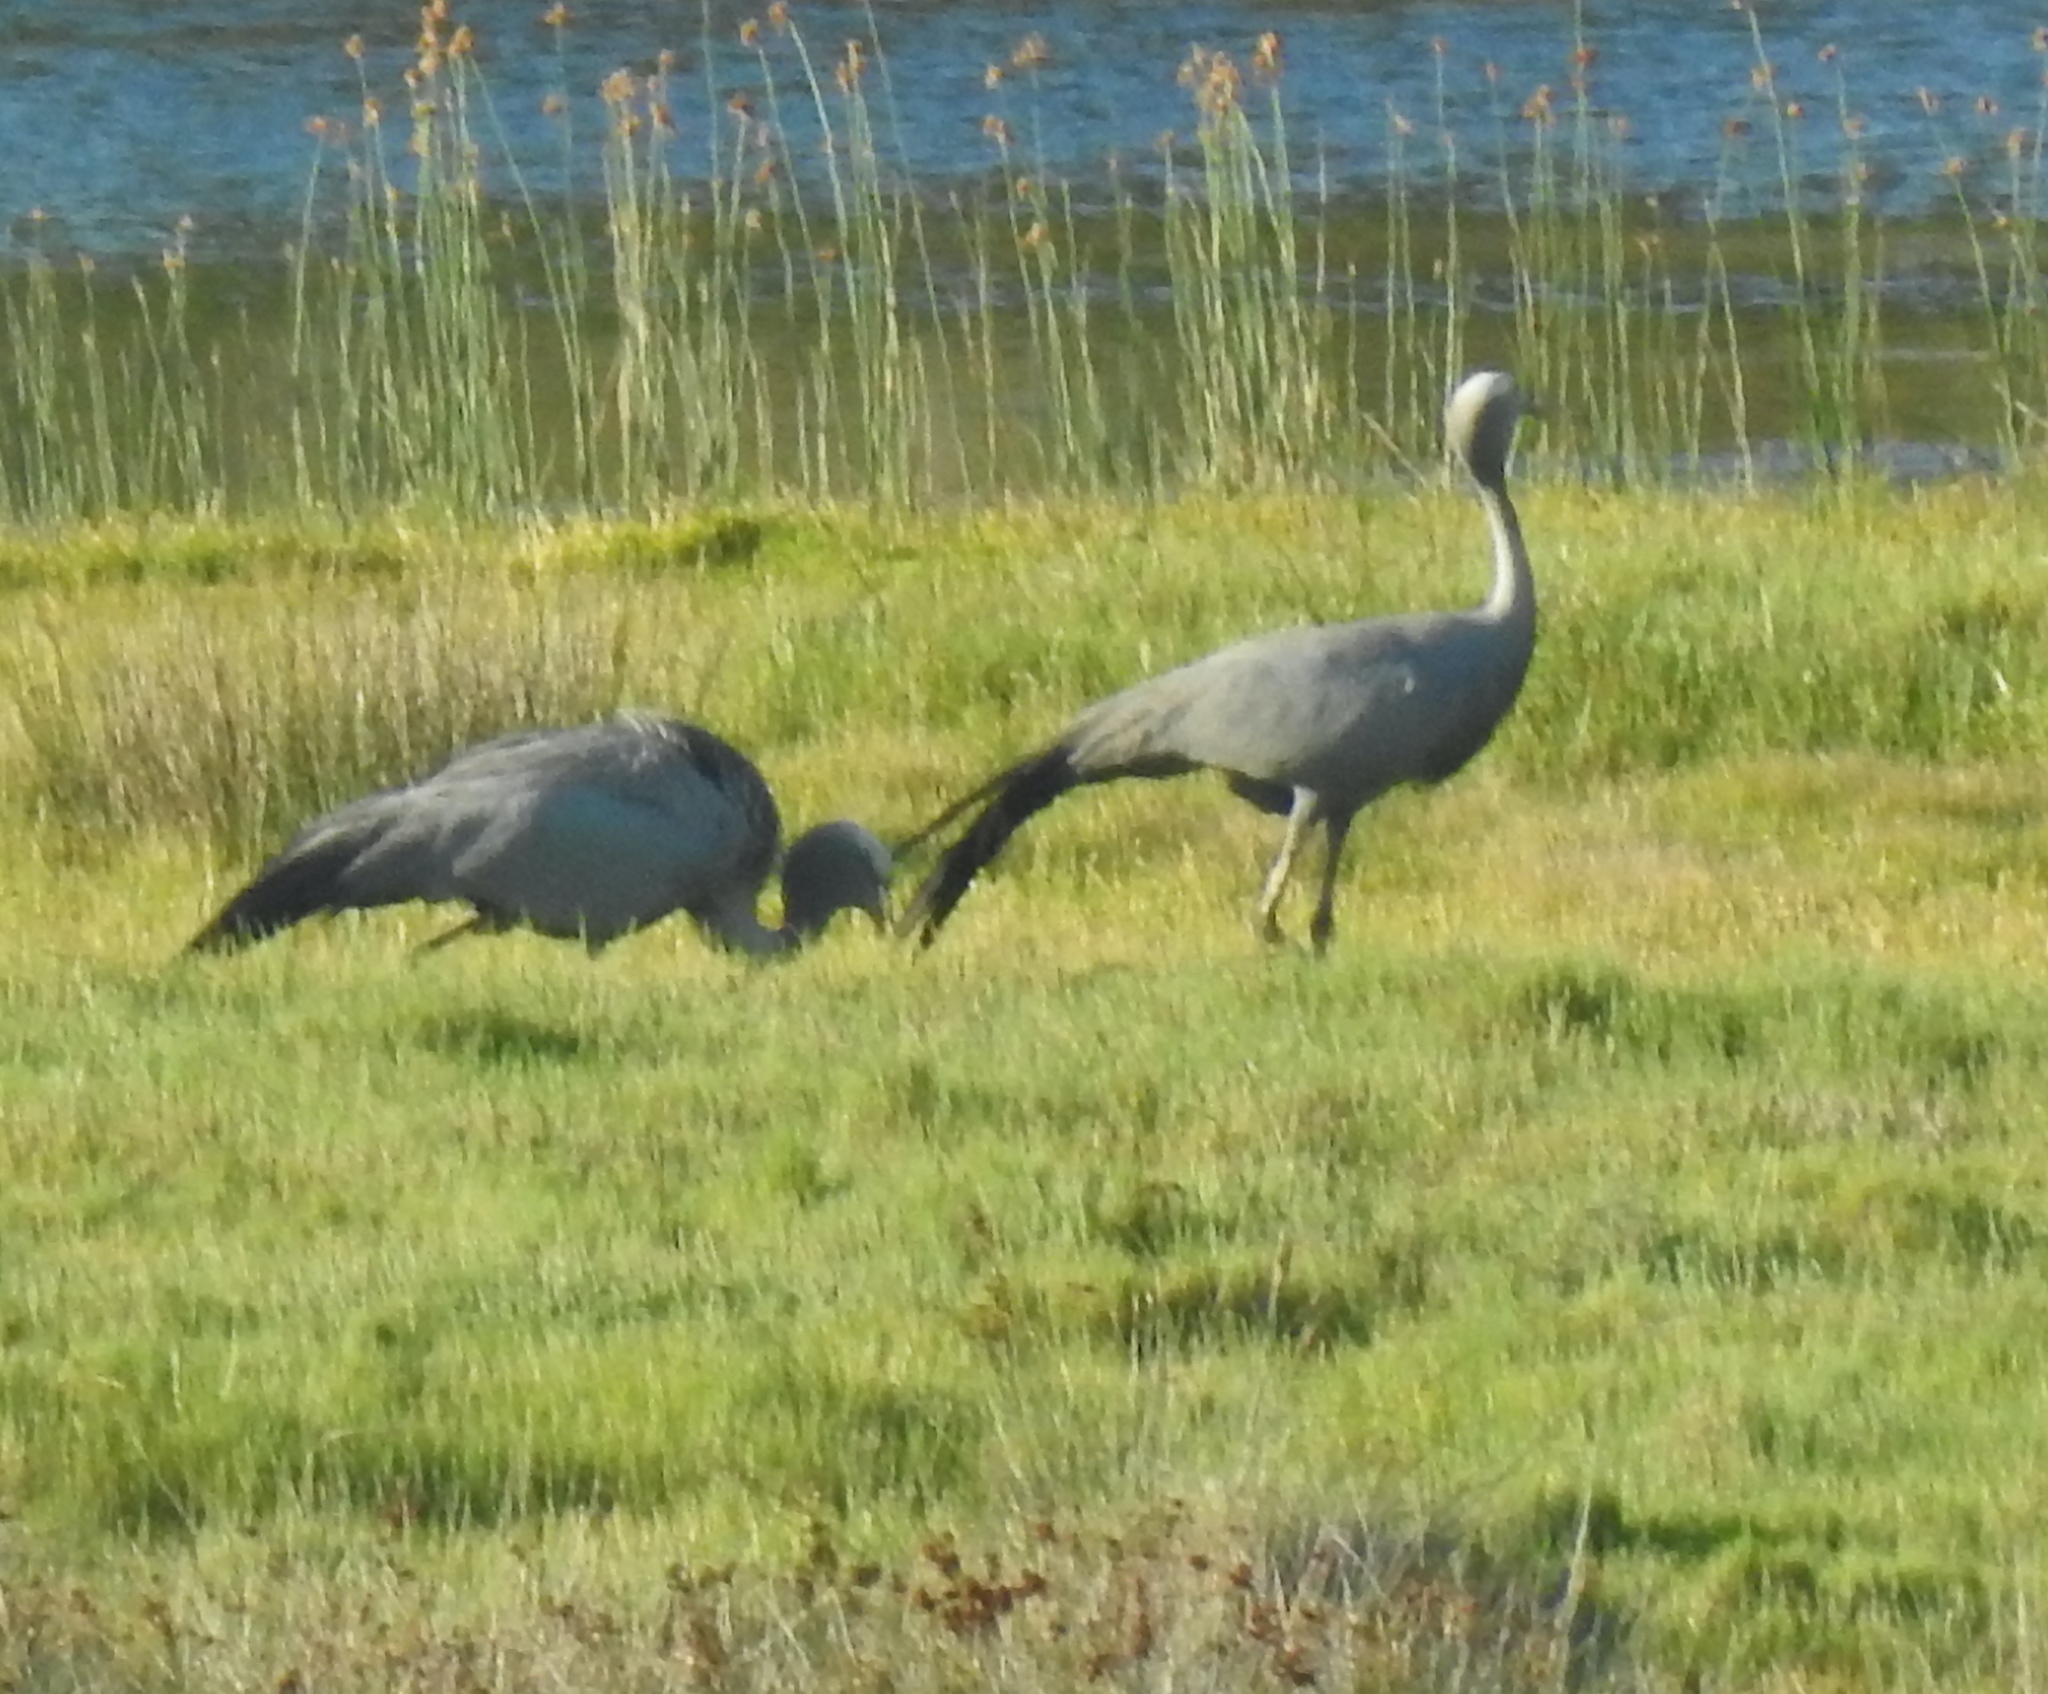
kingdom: Animalia
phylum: Chordata
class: Aves
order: Gruiformes
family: Gruidae
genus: Anthropoides
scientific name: Anthropoides paradiseus
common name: Blue crane
